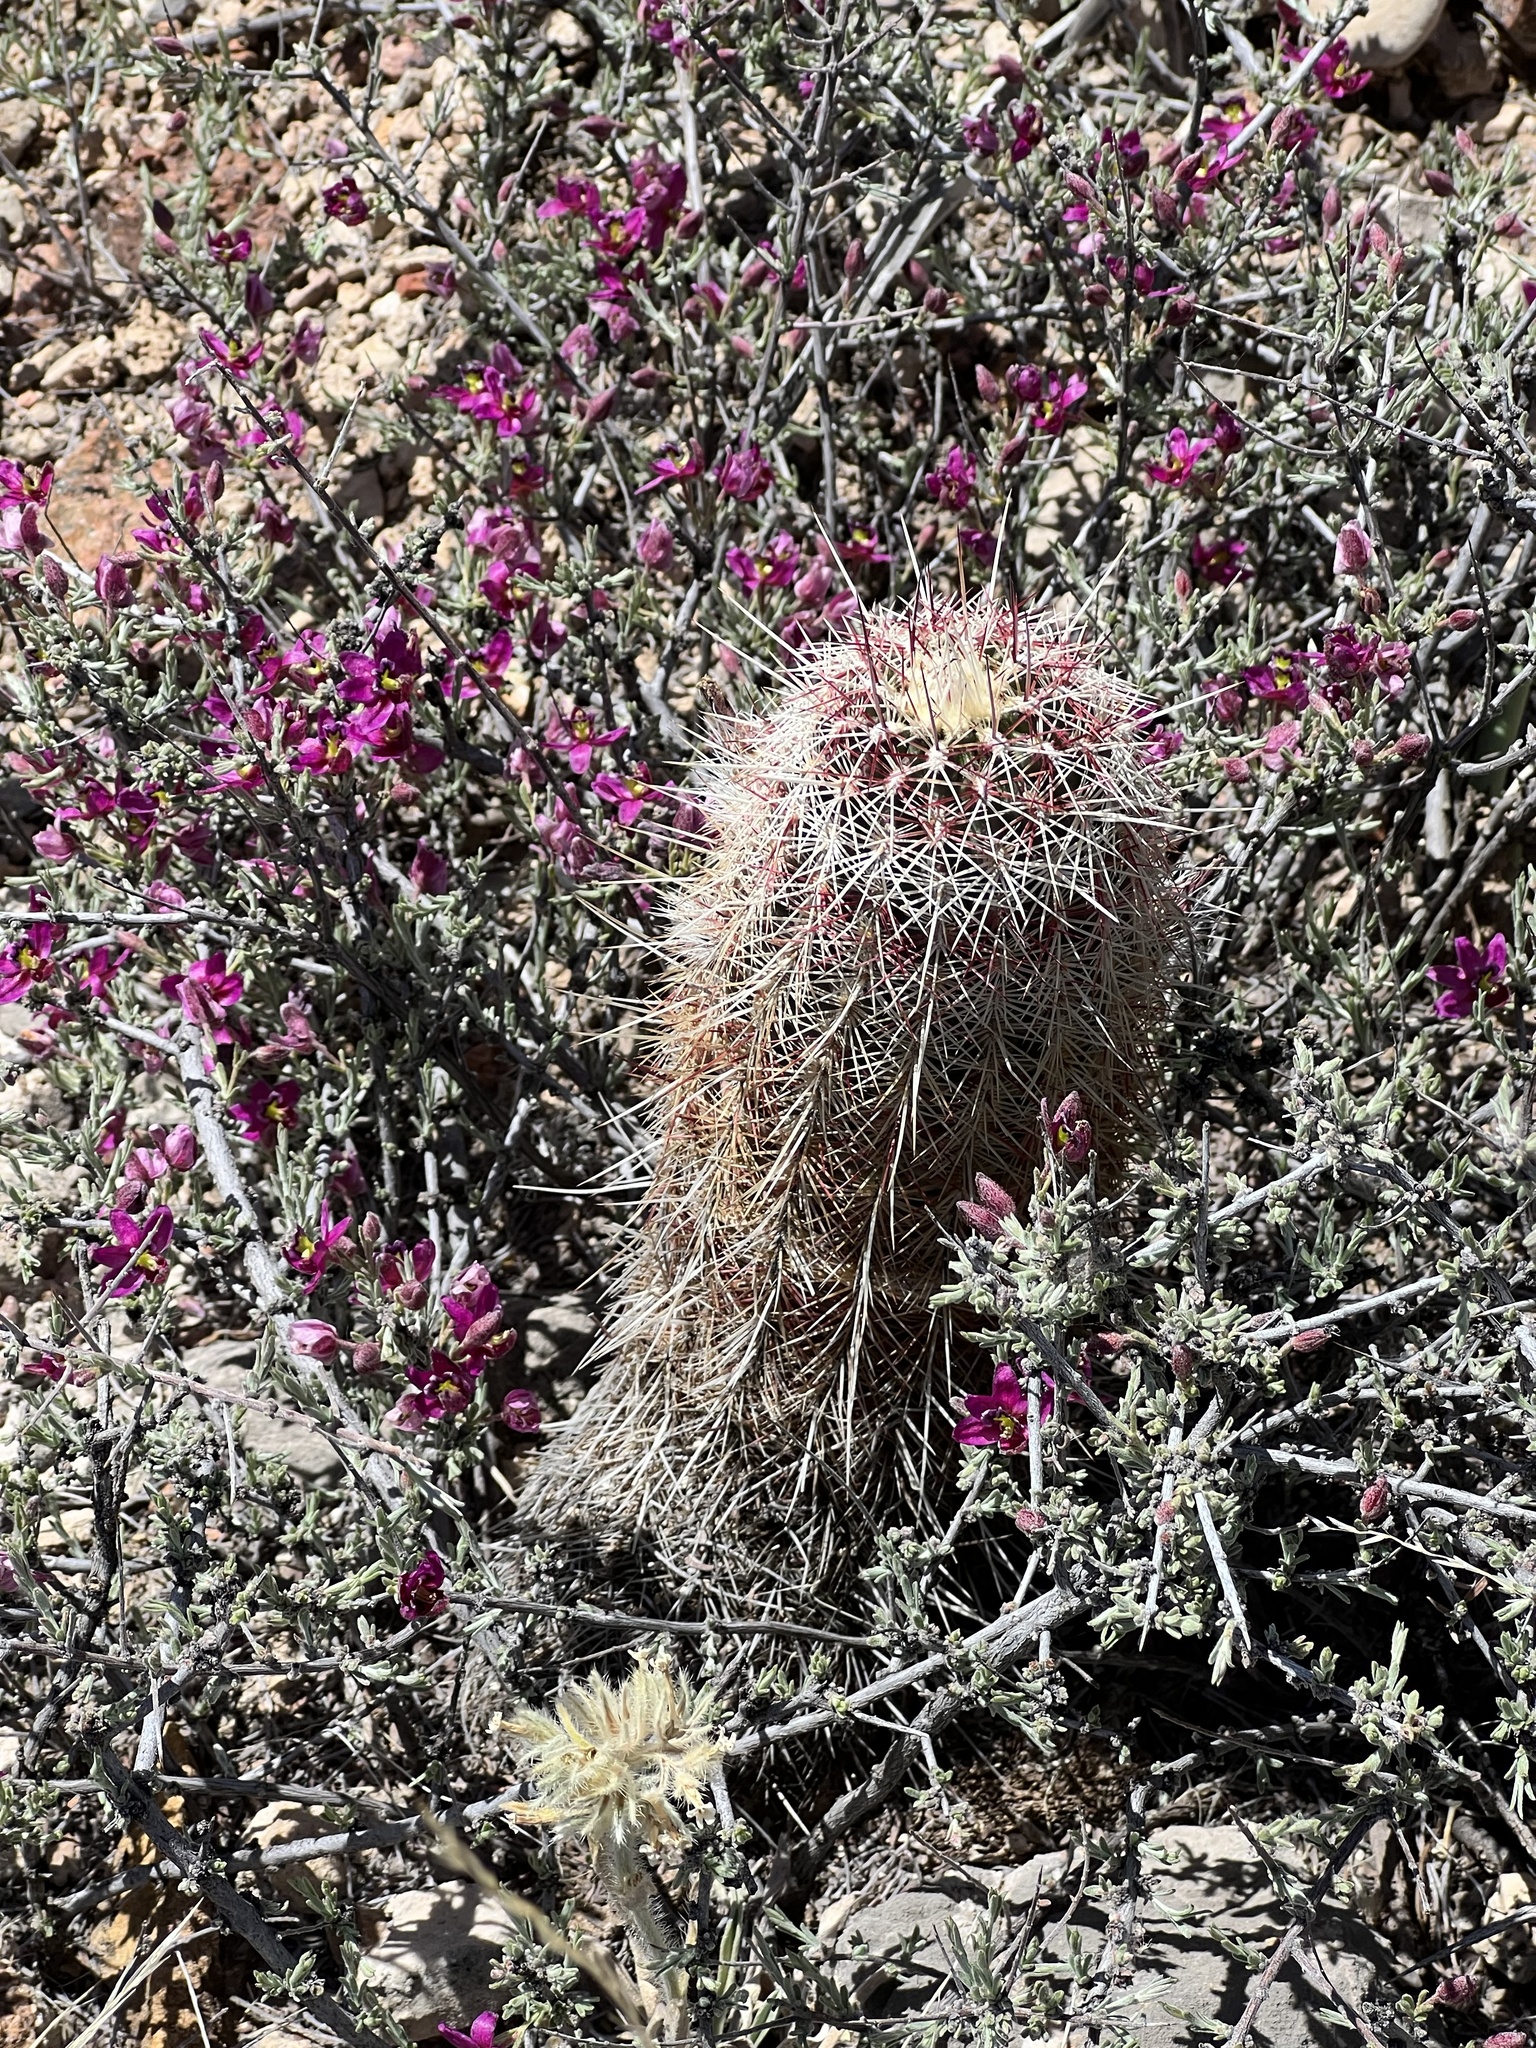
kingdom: Plantae
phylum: Tracheophyta
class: Magnoliopsida
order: Caryophyllales
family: Cactaceae
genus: Echinocereus
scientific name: Echinocereus viridiflorus
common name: Nylon hedgehog cactus
